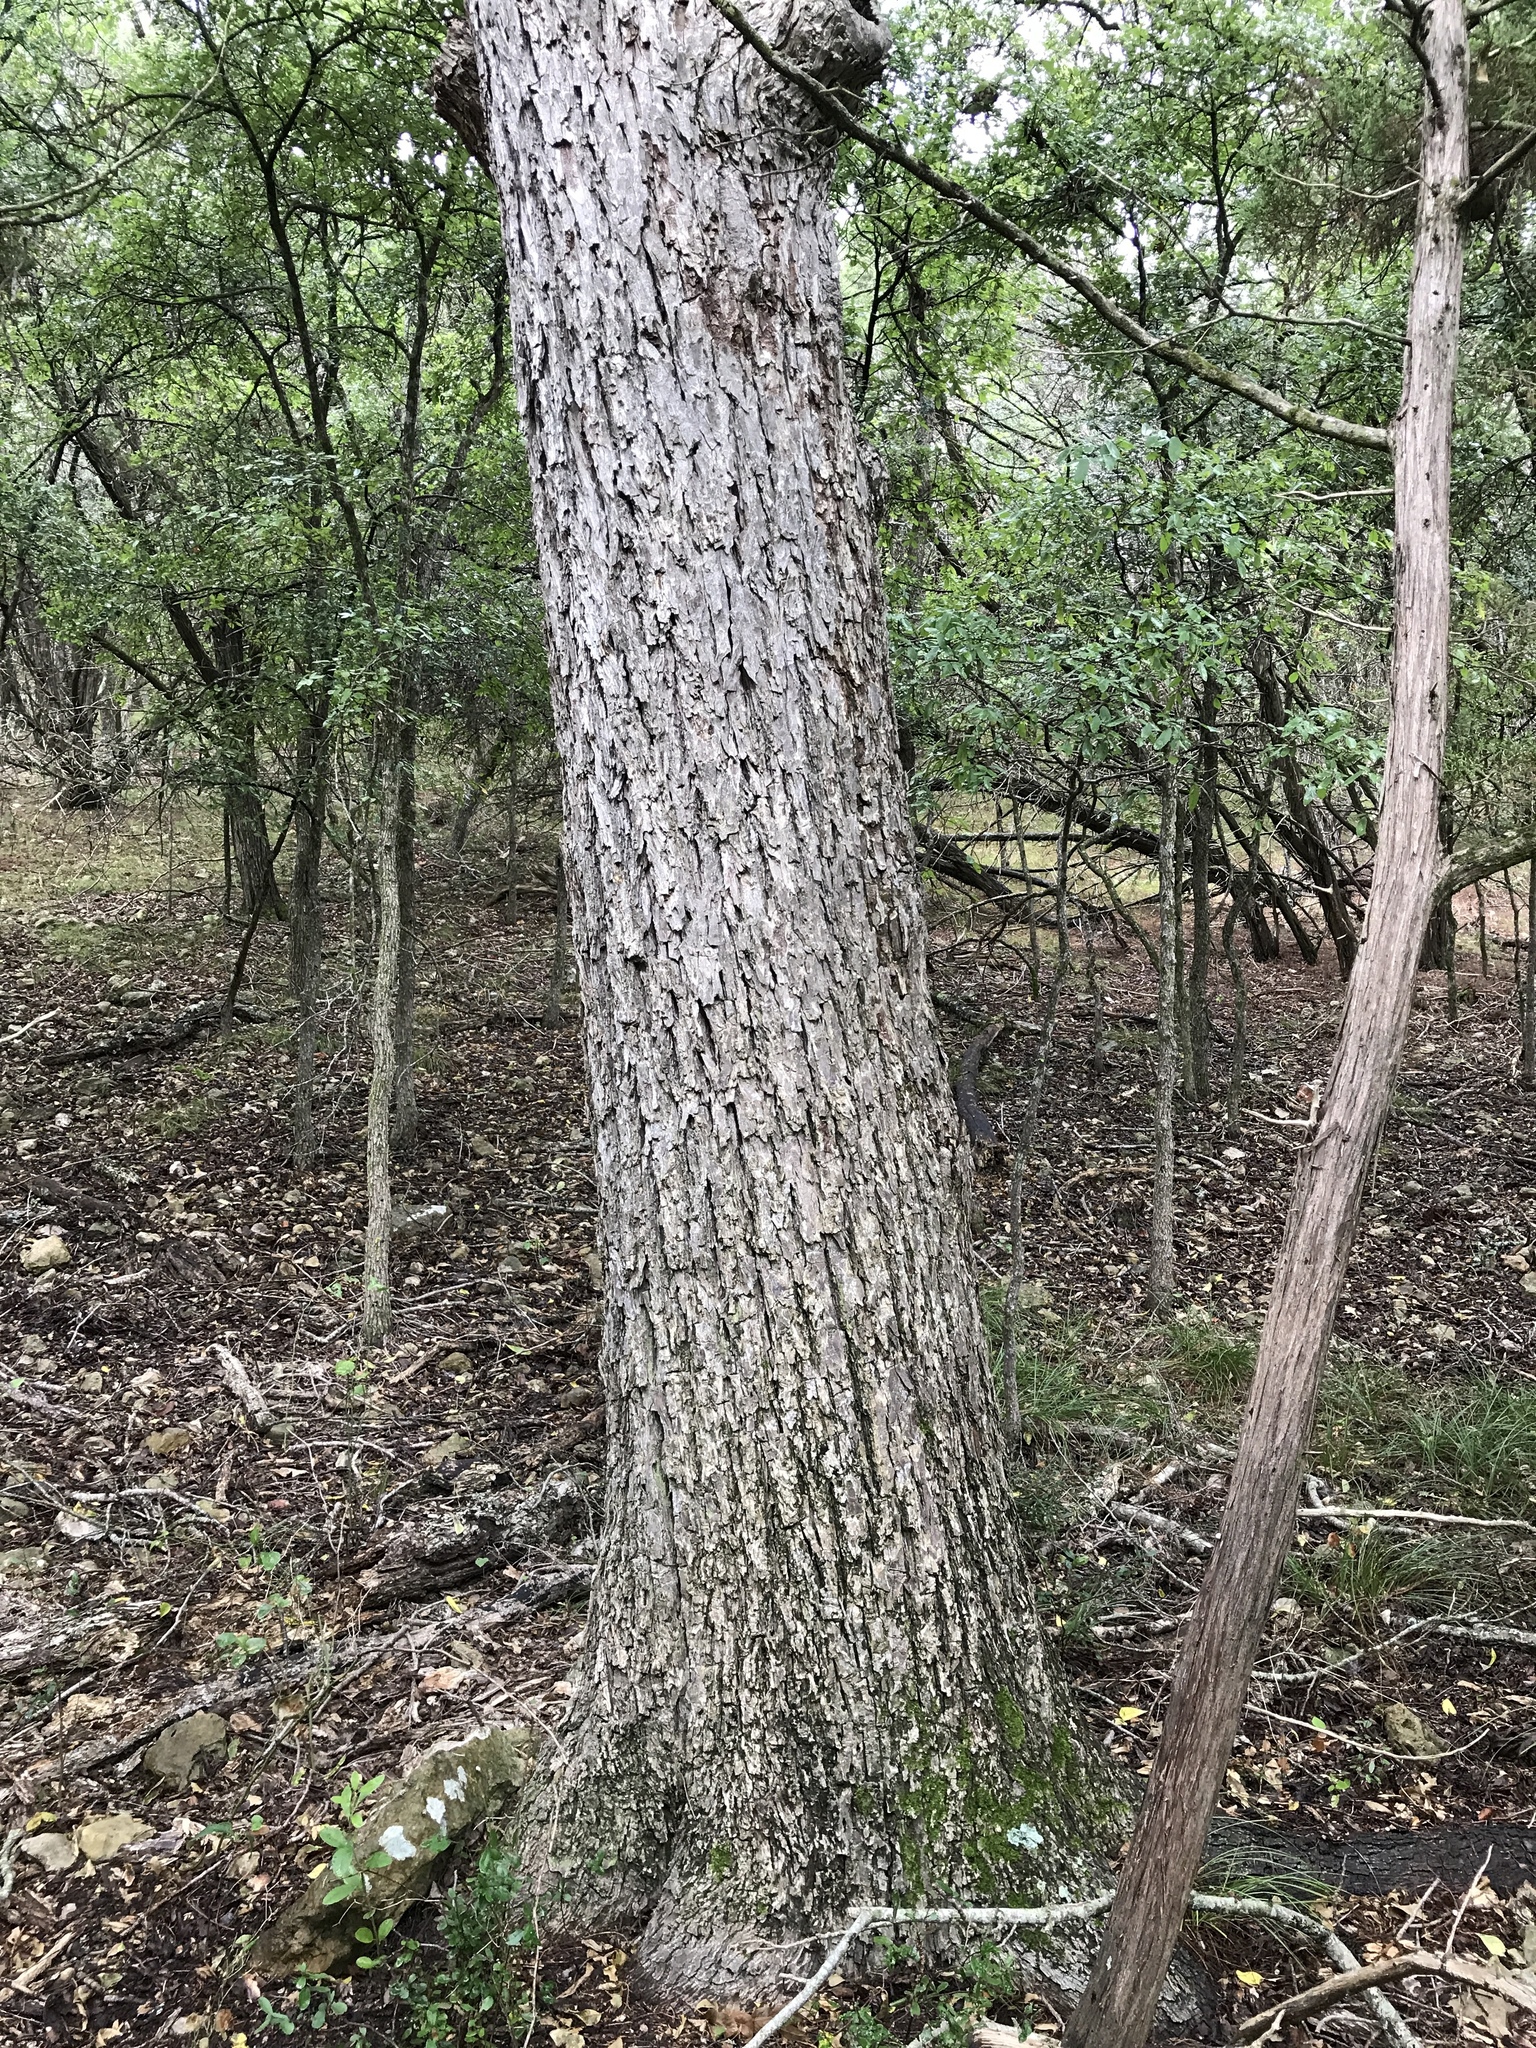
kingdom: Plantae
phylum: Tracheophyta
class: Magnoliopsida
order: Fagales
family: Juglandaceae
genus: Carya
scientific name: Carya illinoinensis
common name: Pecan
